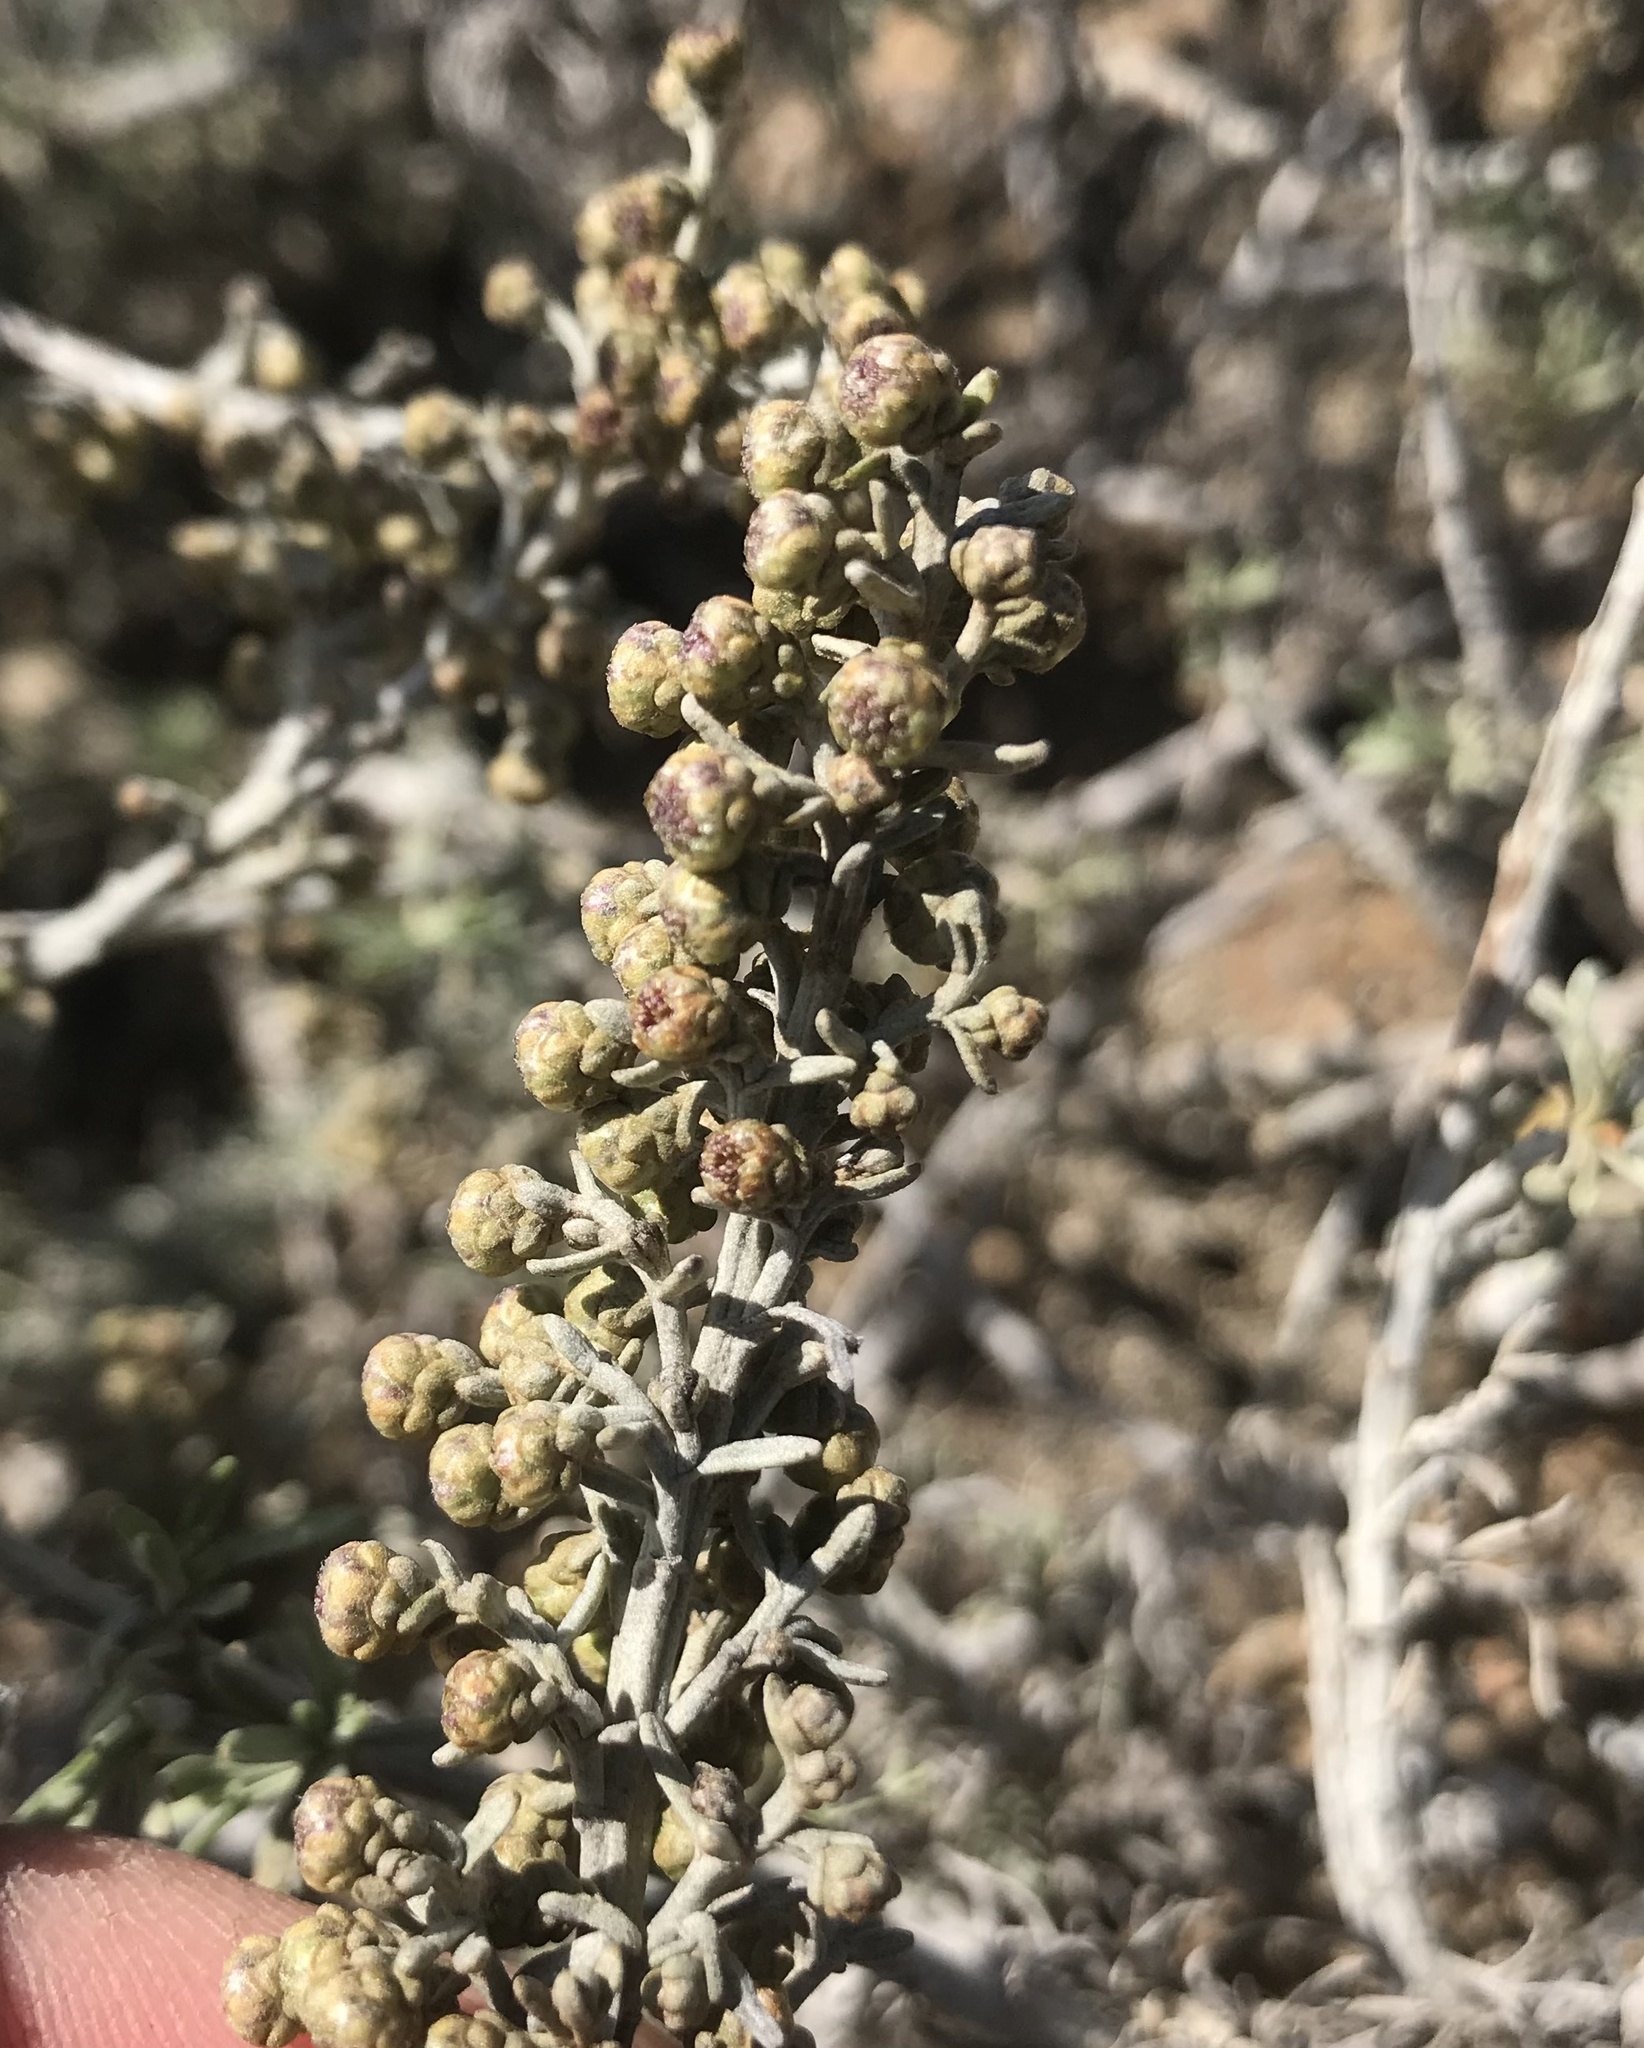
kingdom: Plantae
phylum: Tracheophyta
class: Magnoliopsida
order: Asterales
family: Asteraceae
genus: Artemisia
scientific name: Artemisia nesiotica
